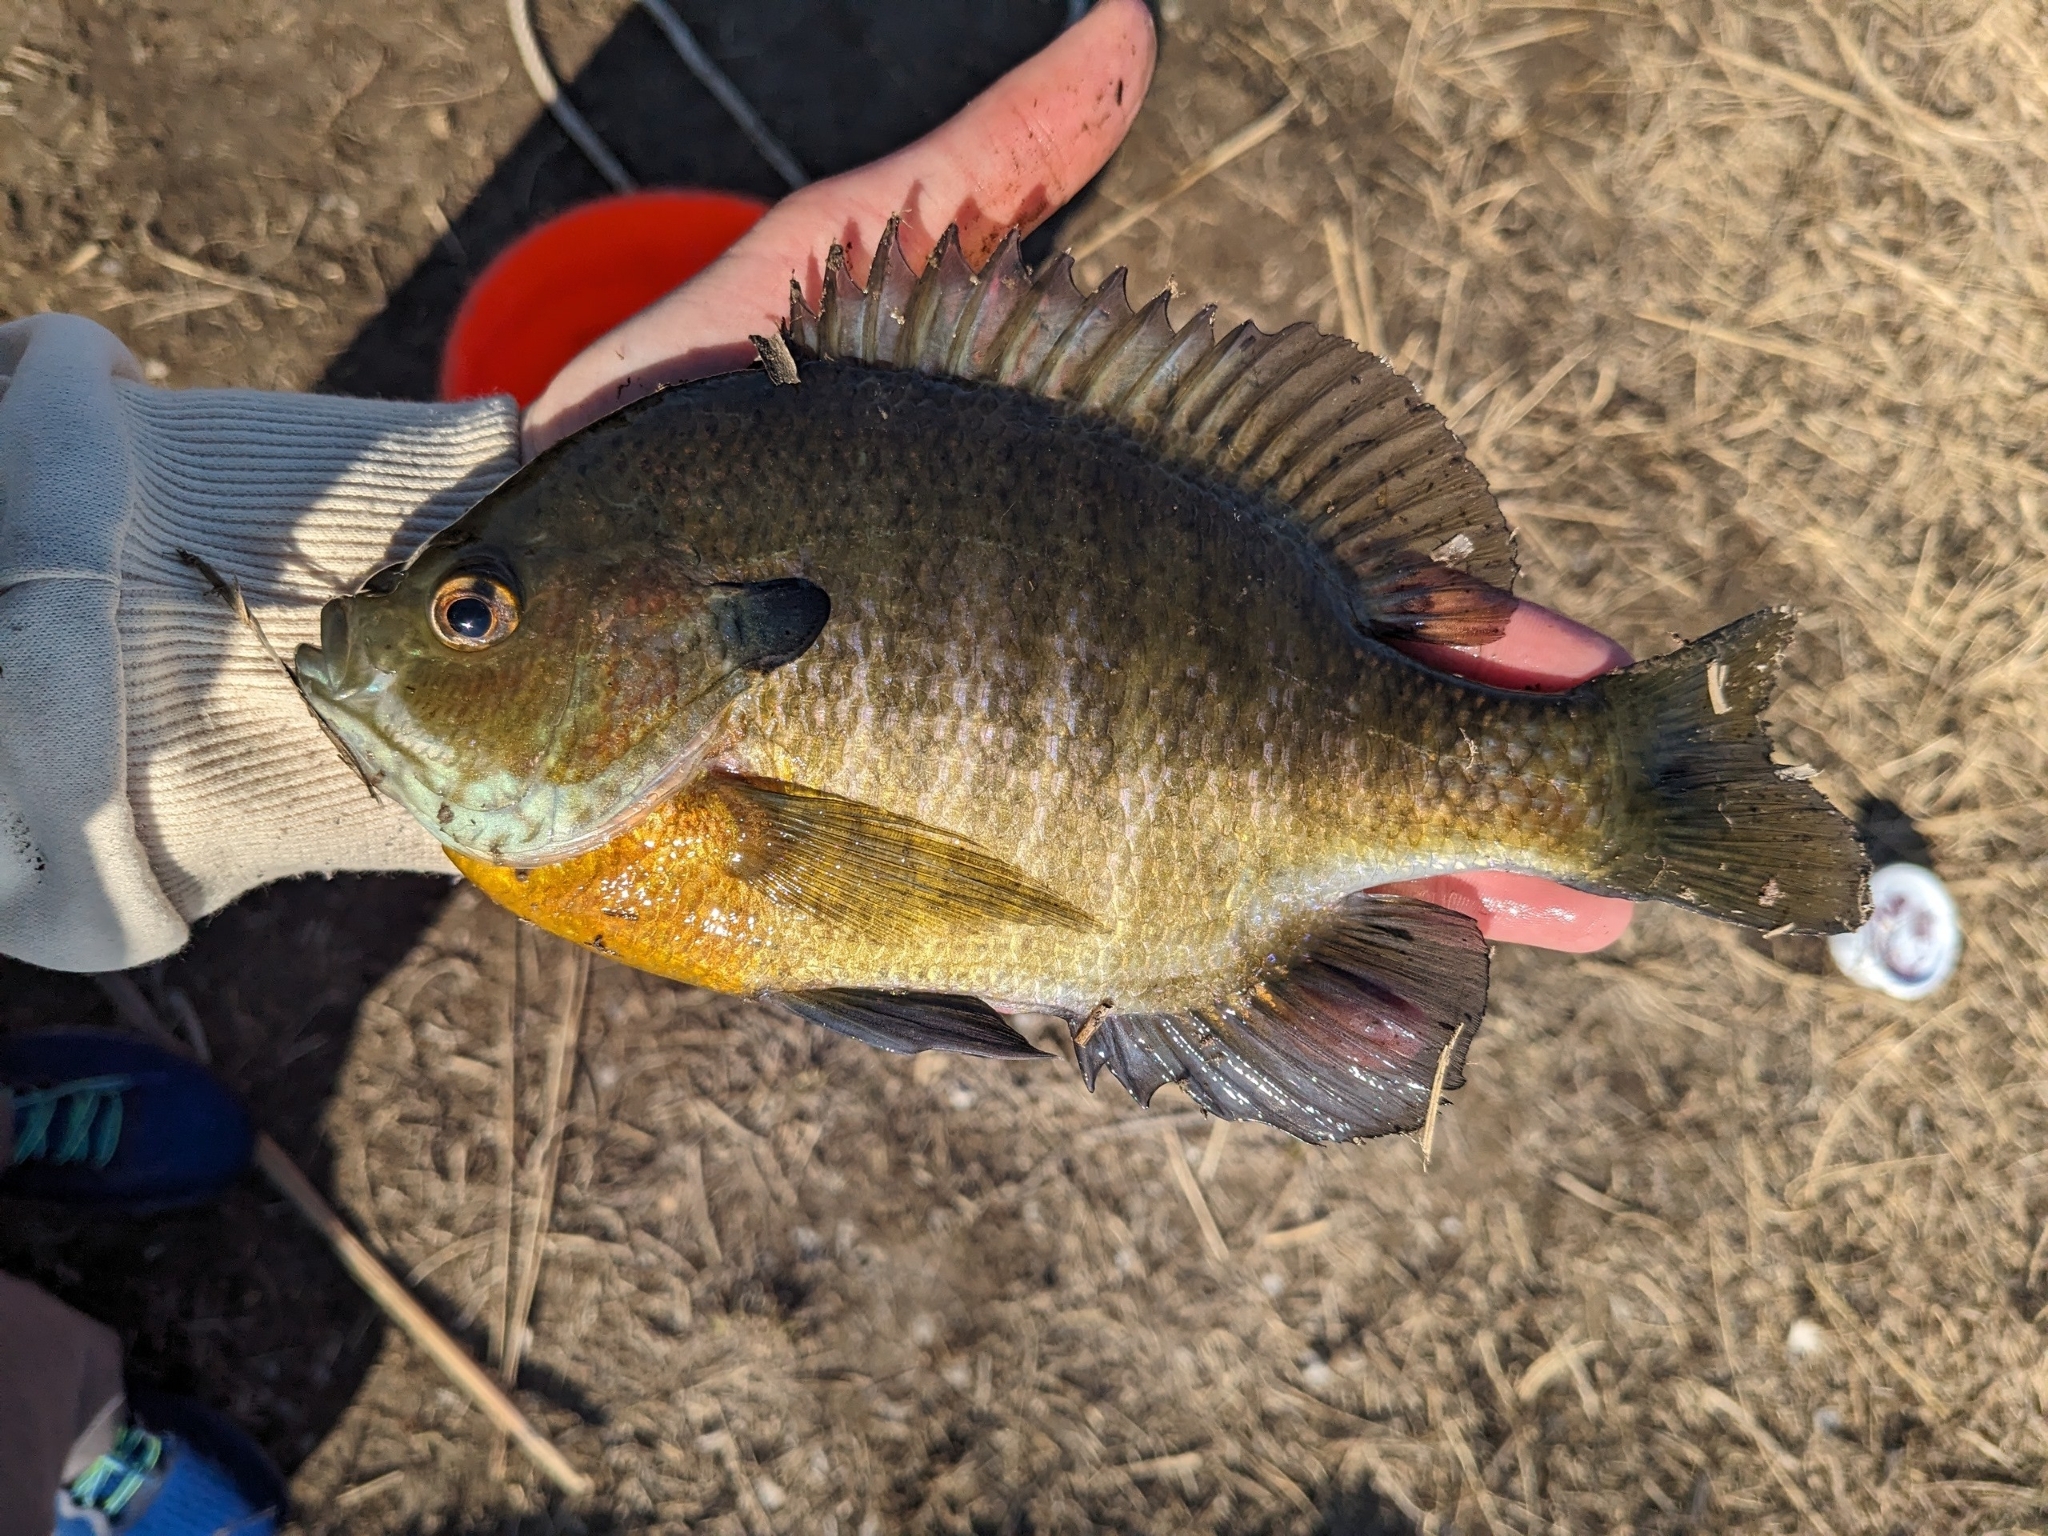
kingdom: Animalia
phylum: Chordata
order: Perciformes
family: Centrarchidae
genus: Lepomis
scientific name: Lepomis macrochirus
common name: Bluegill
